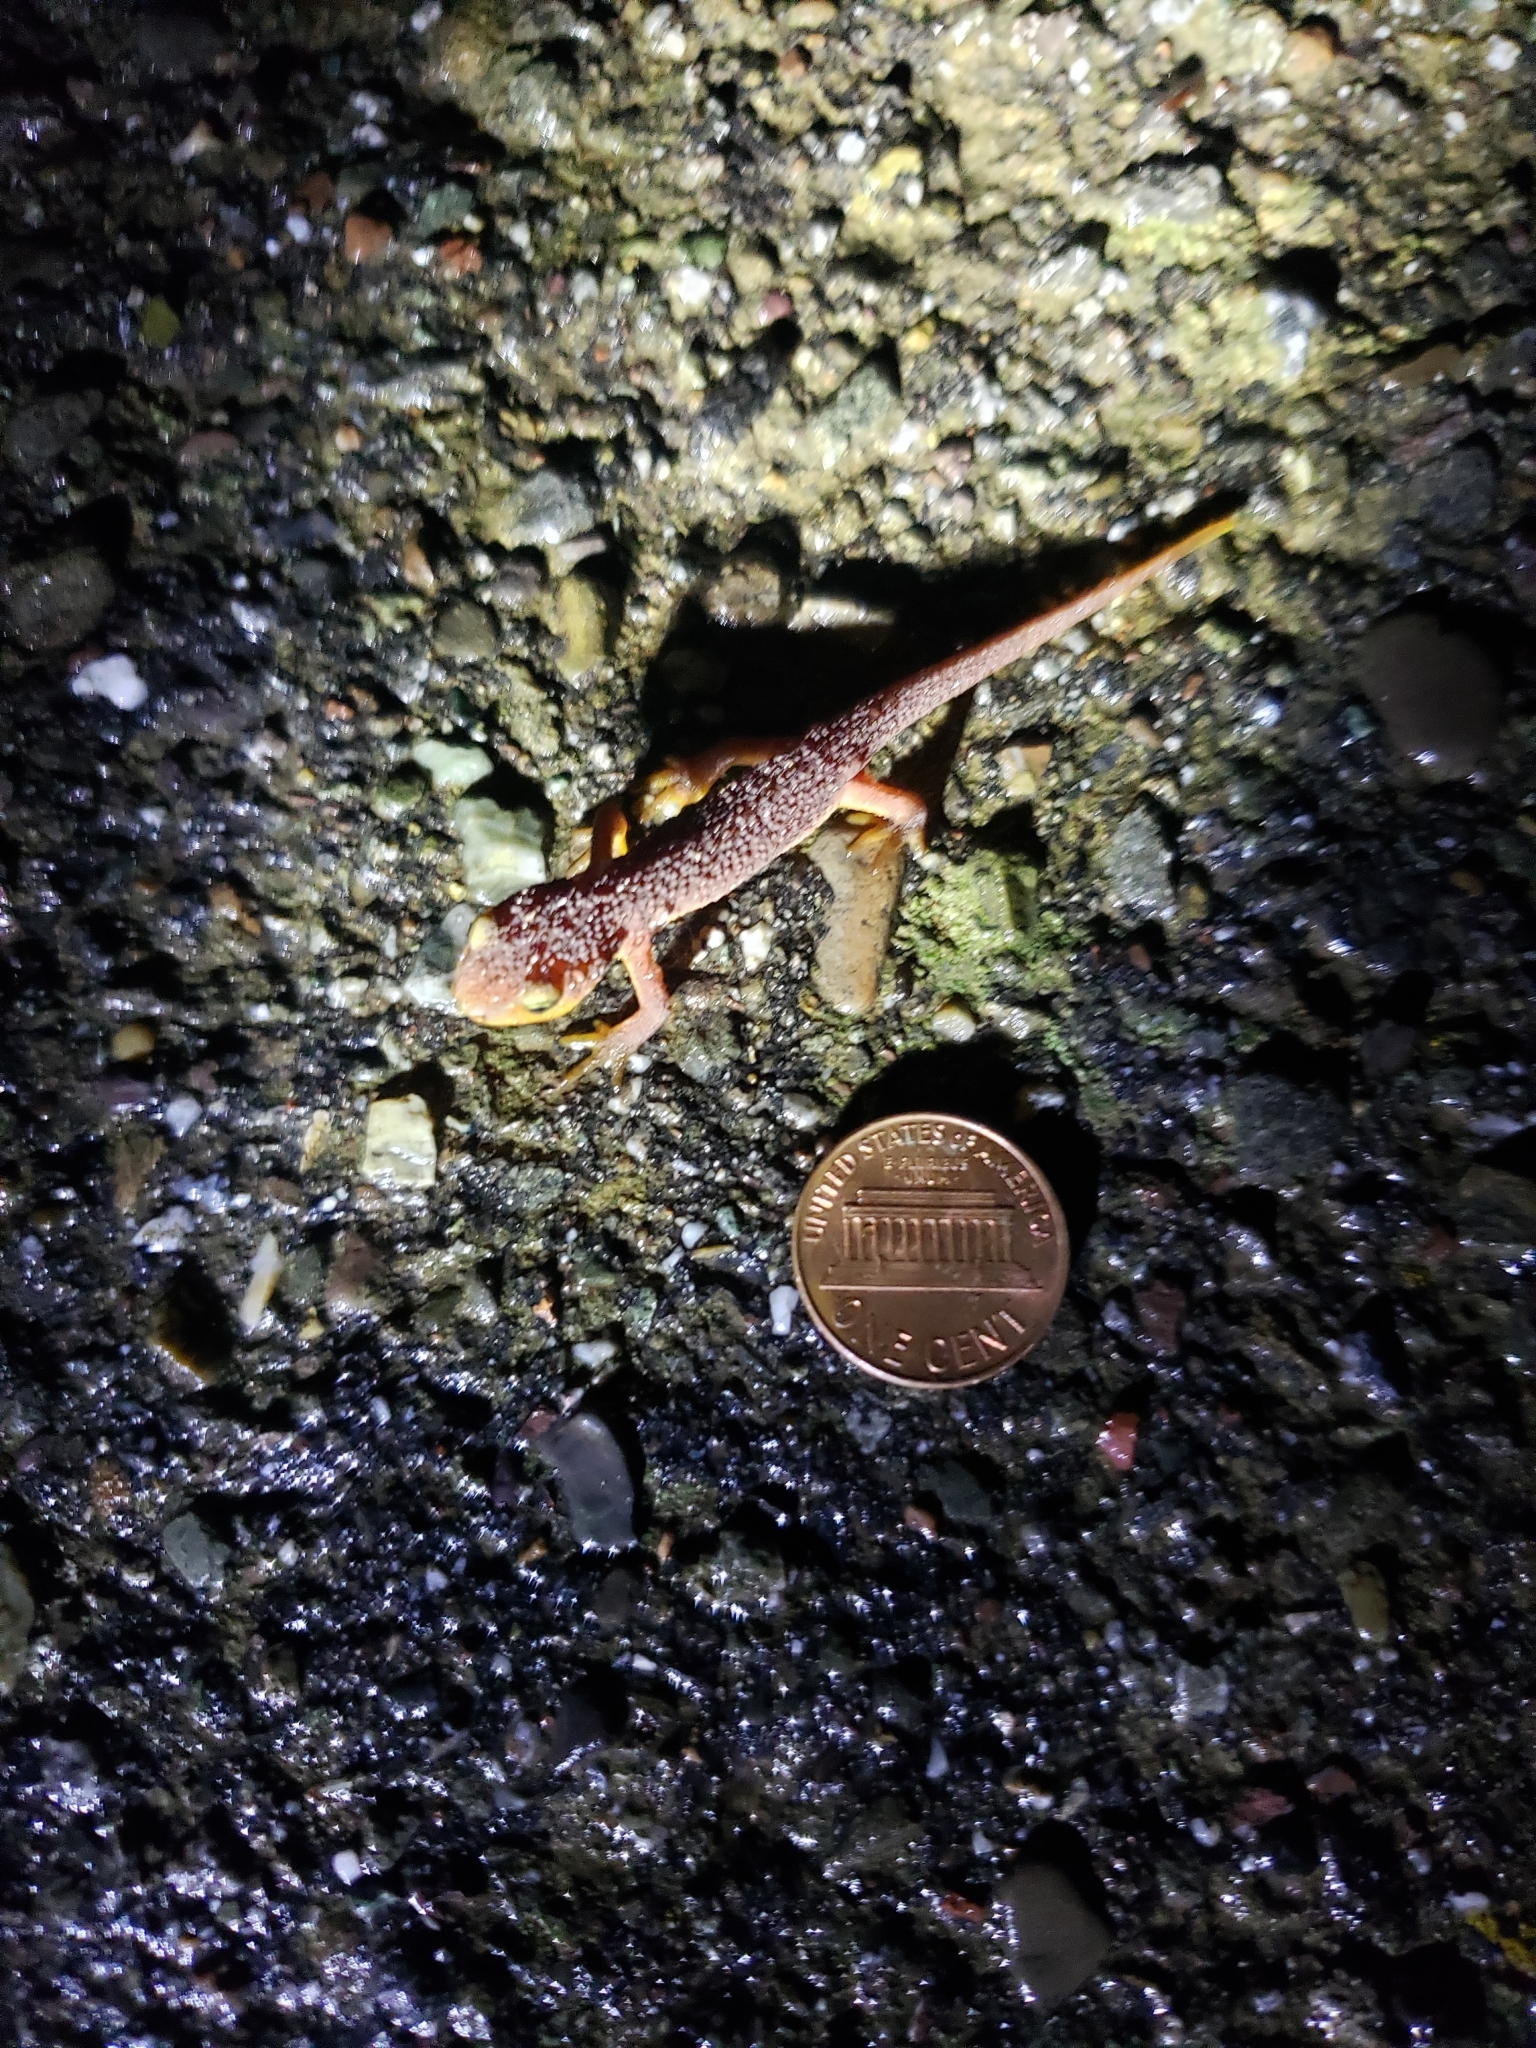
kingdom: Animalia
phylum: Chordata
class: Amphibia
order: Caudata
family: Salamandridae
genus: Taricha
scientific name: Taricha torosa
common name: California newt
